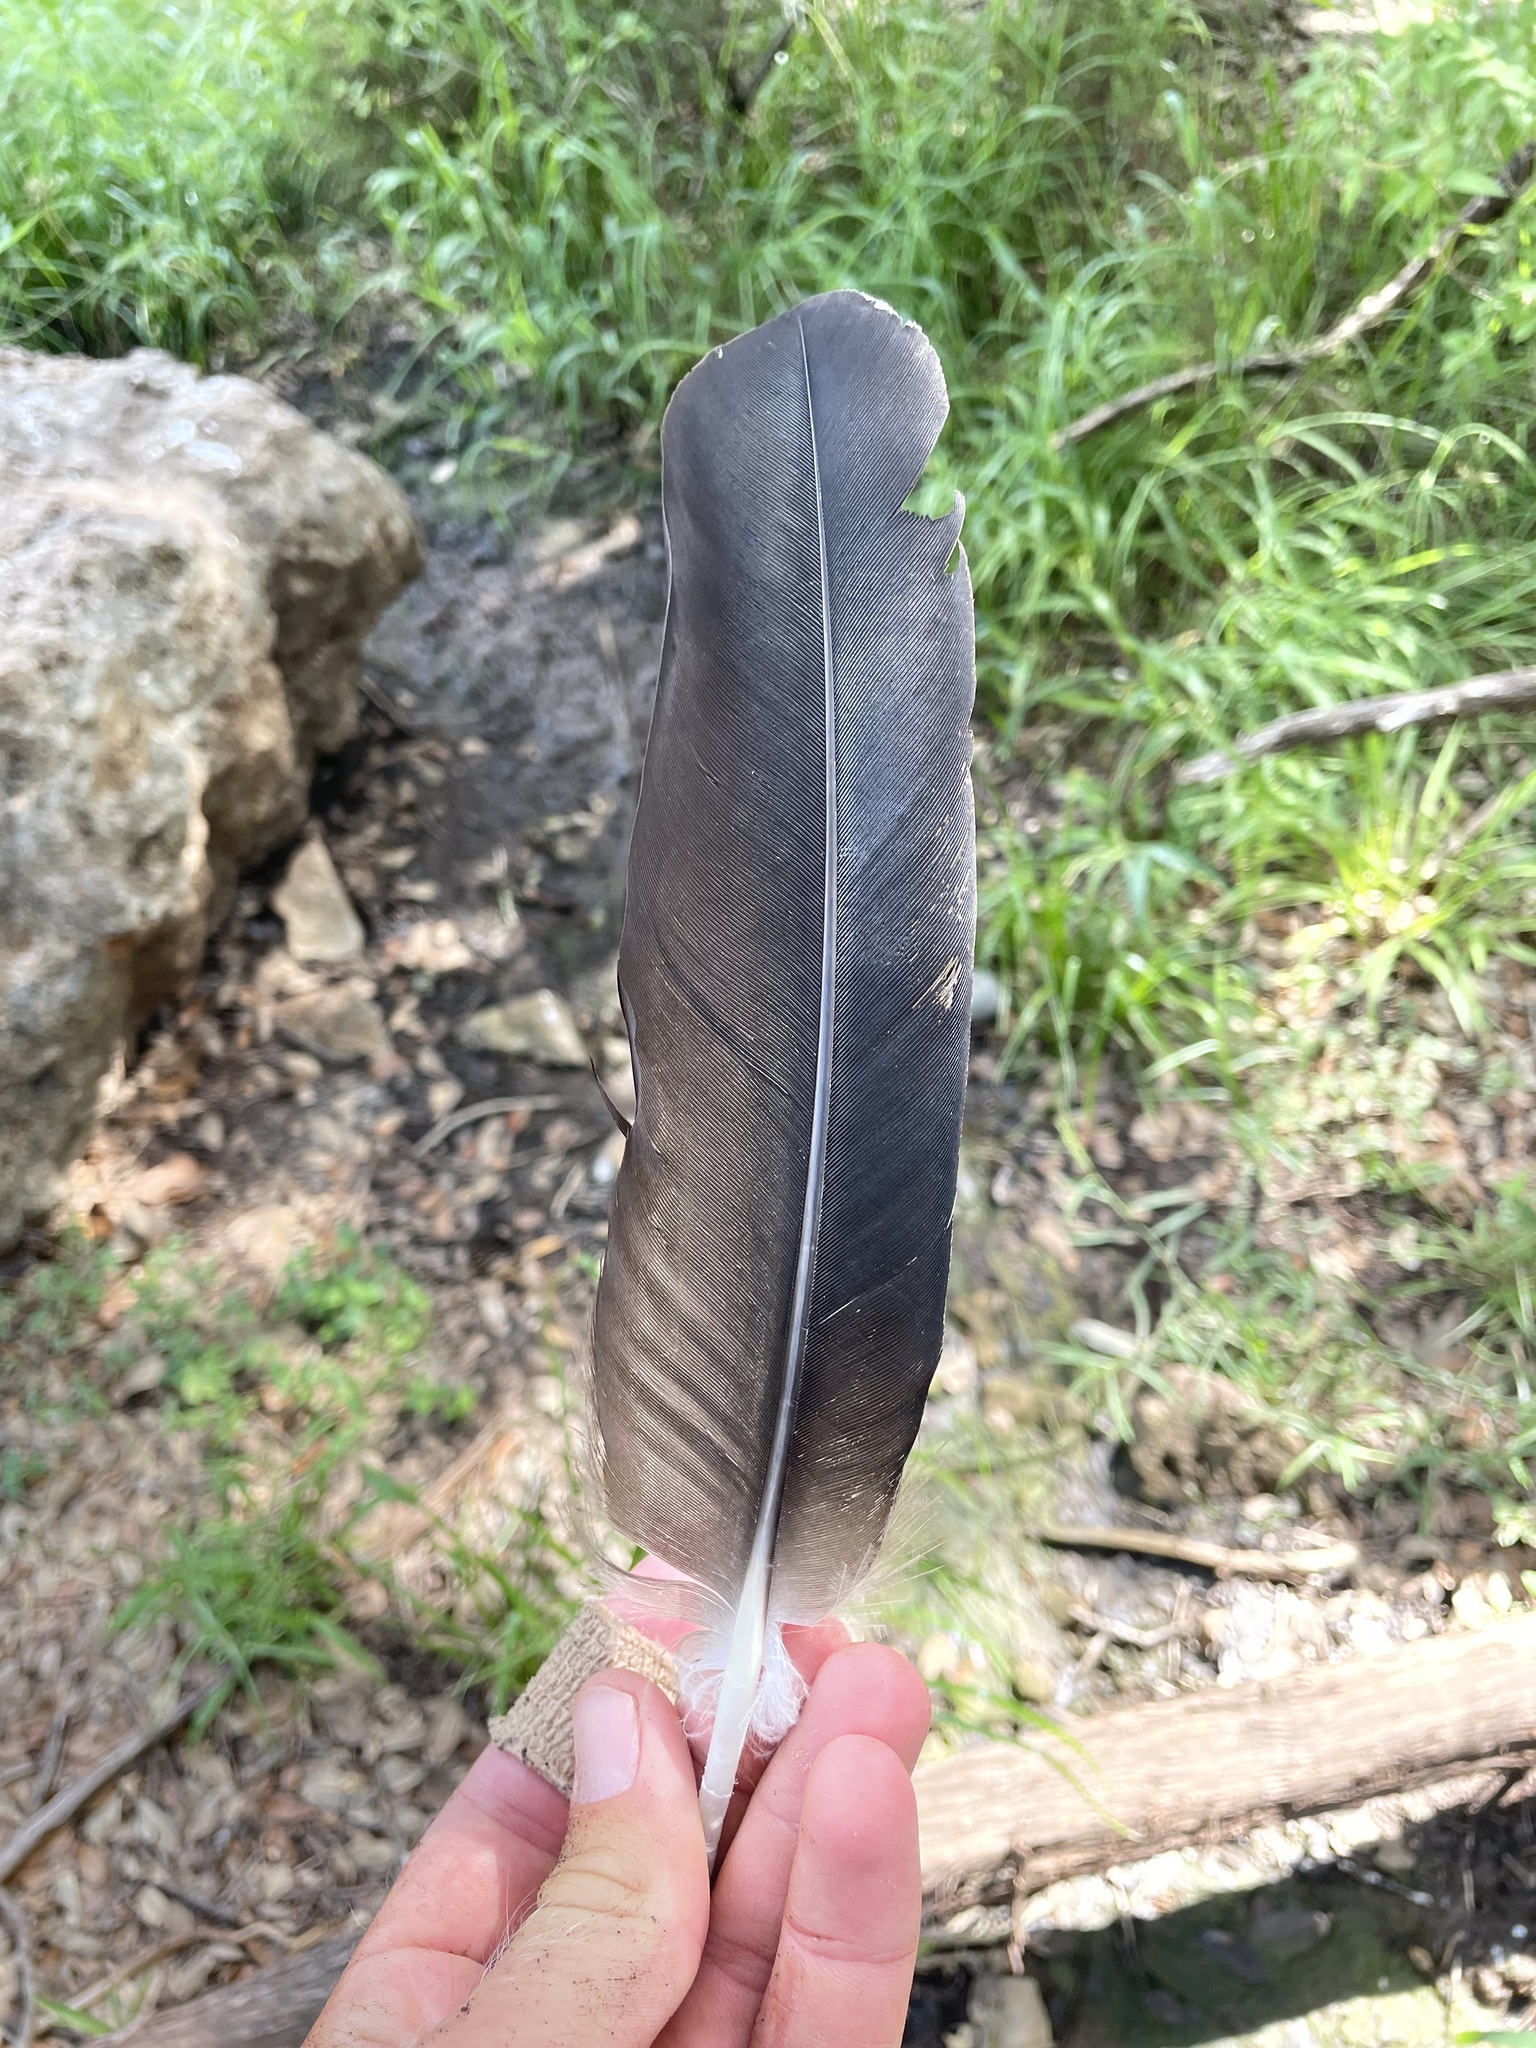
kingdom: Animalia
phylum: Chordata
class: Aves
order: Accipitriformes
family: Cathartidae
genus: Coragyps
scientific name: Coragyps atratus
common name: Black vulture
